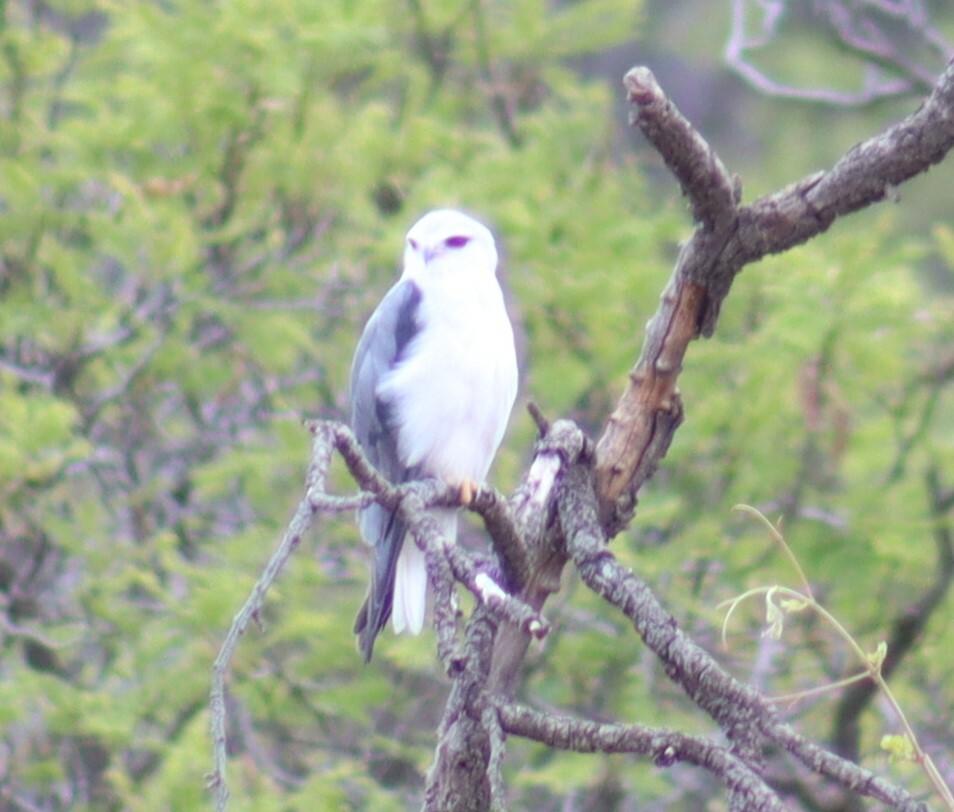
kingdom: Animalia
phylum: Chordata
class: Aves
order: Accipitriformes
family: Accipitridae
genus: Elanus
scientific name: Elanus caeruleus
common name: Black-winged kite
